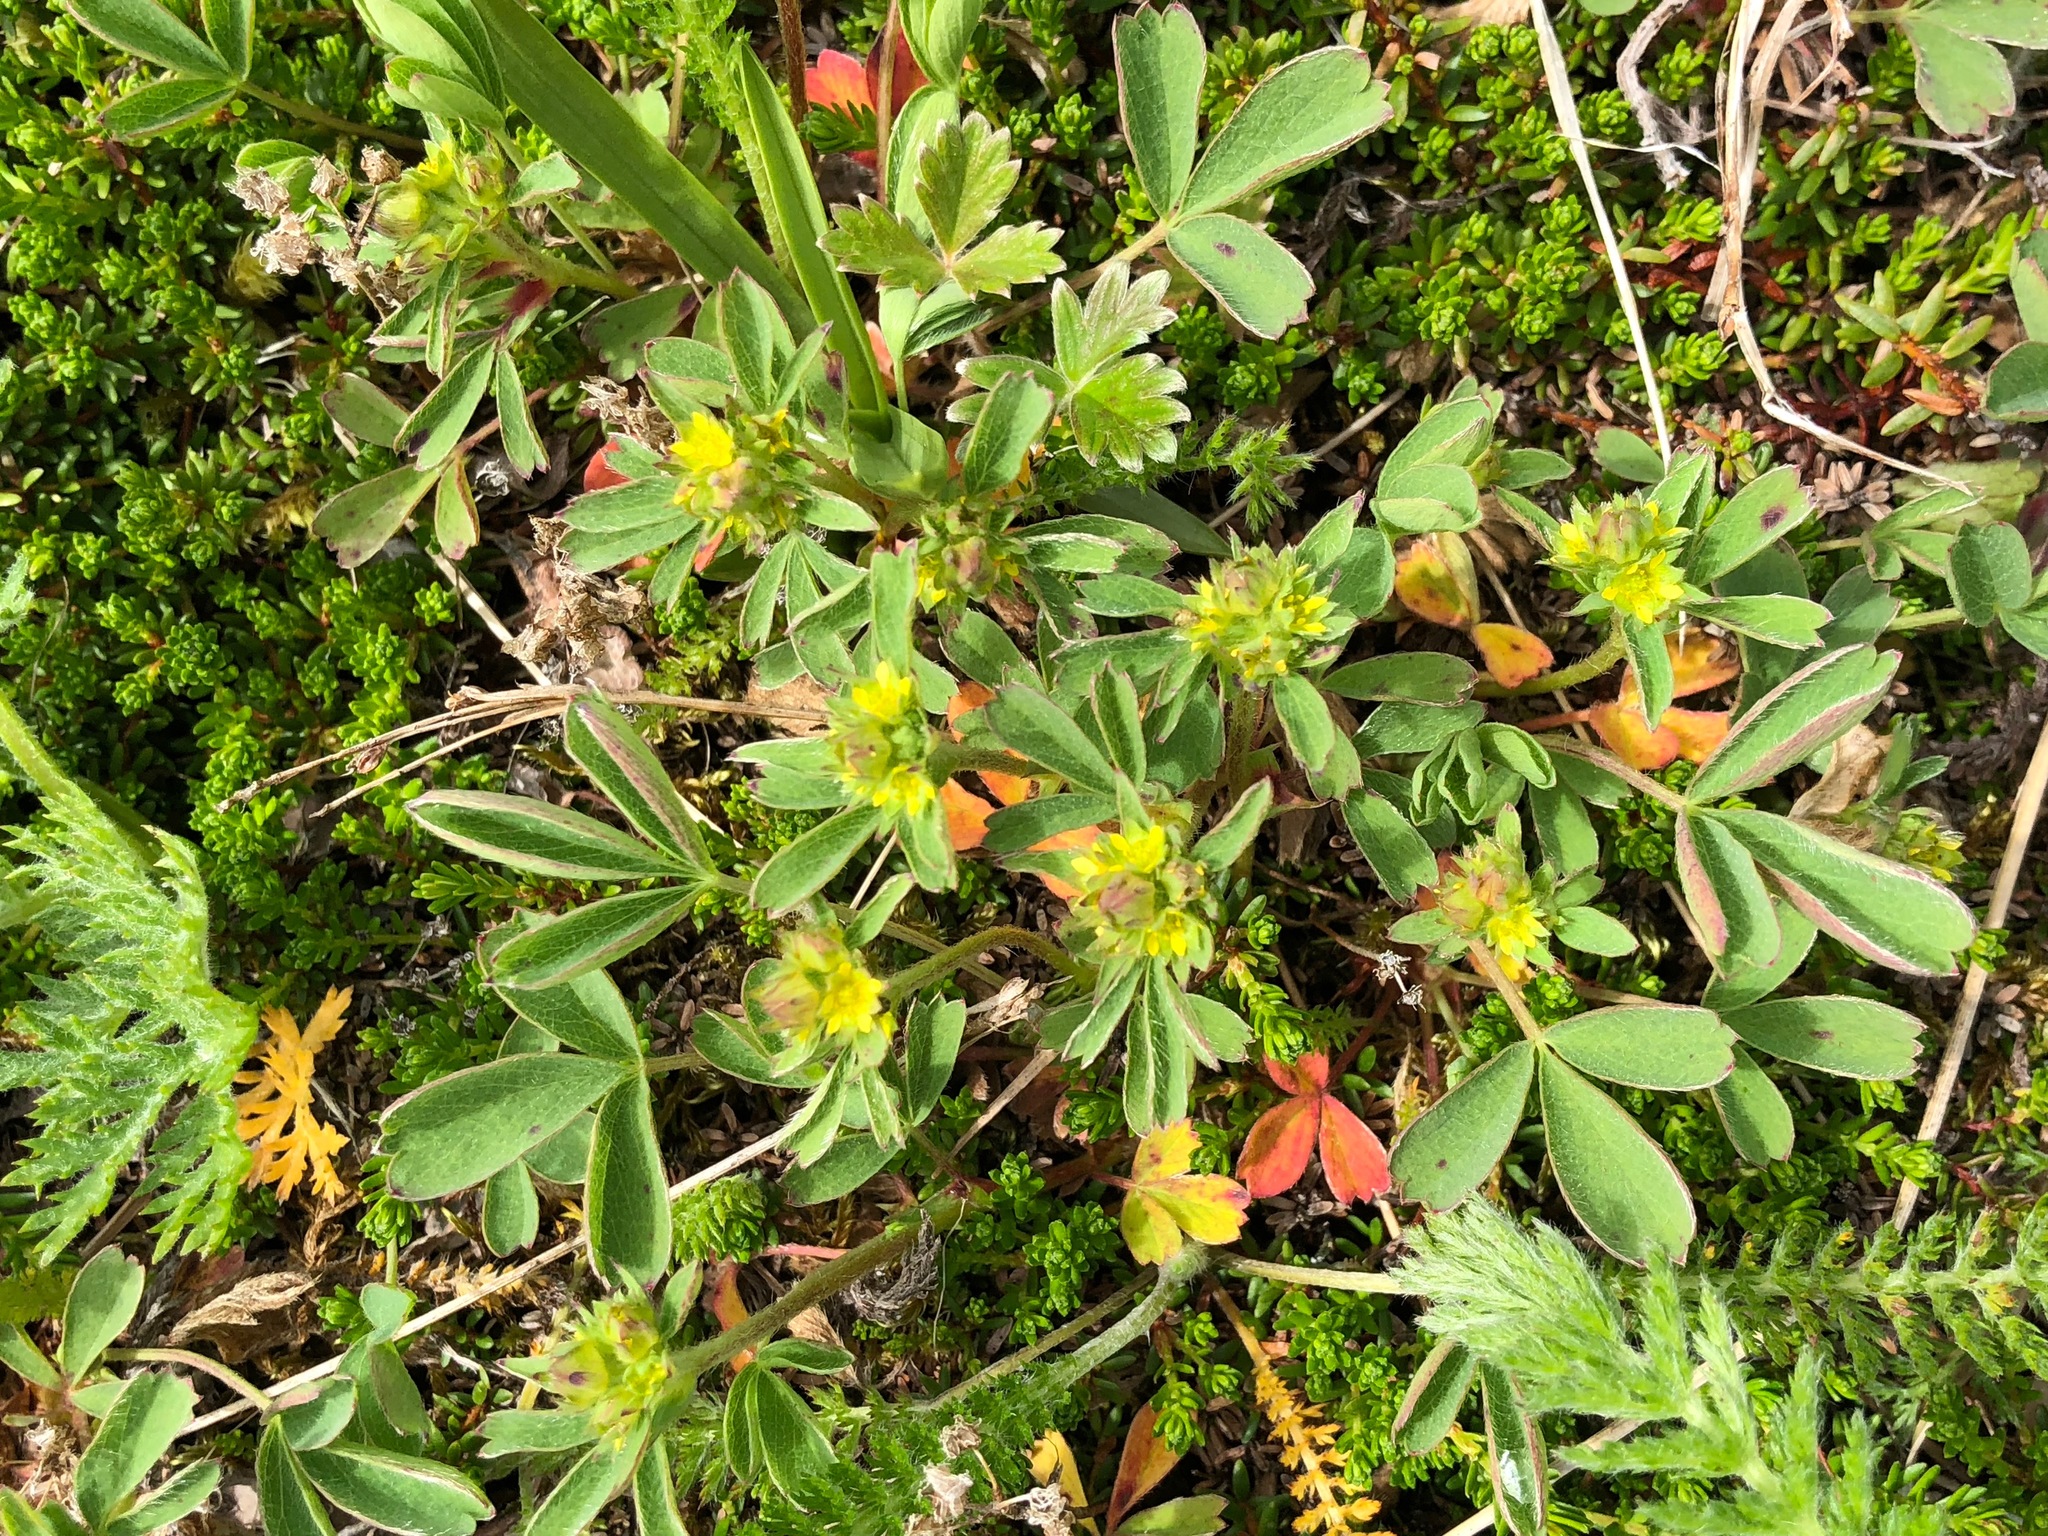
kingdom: Plantae
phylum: Tracheophyta
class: Magnoliopsida
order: Rosales
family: Rosaceae
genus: Sibbaldia
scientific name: Sibbaldia procumbens
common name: Creeping sibbaldia
